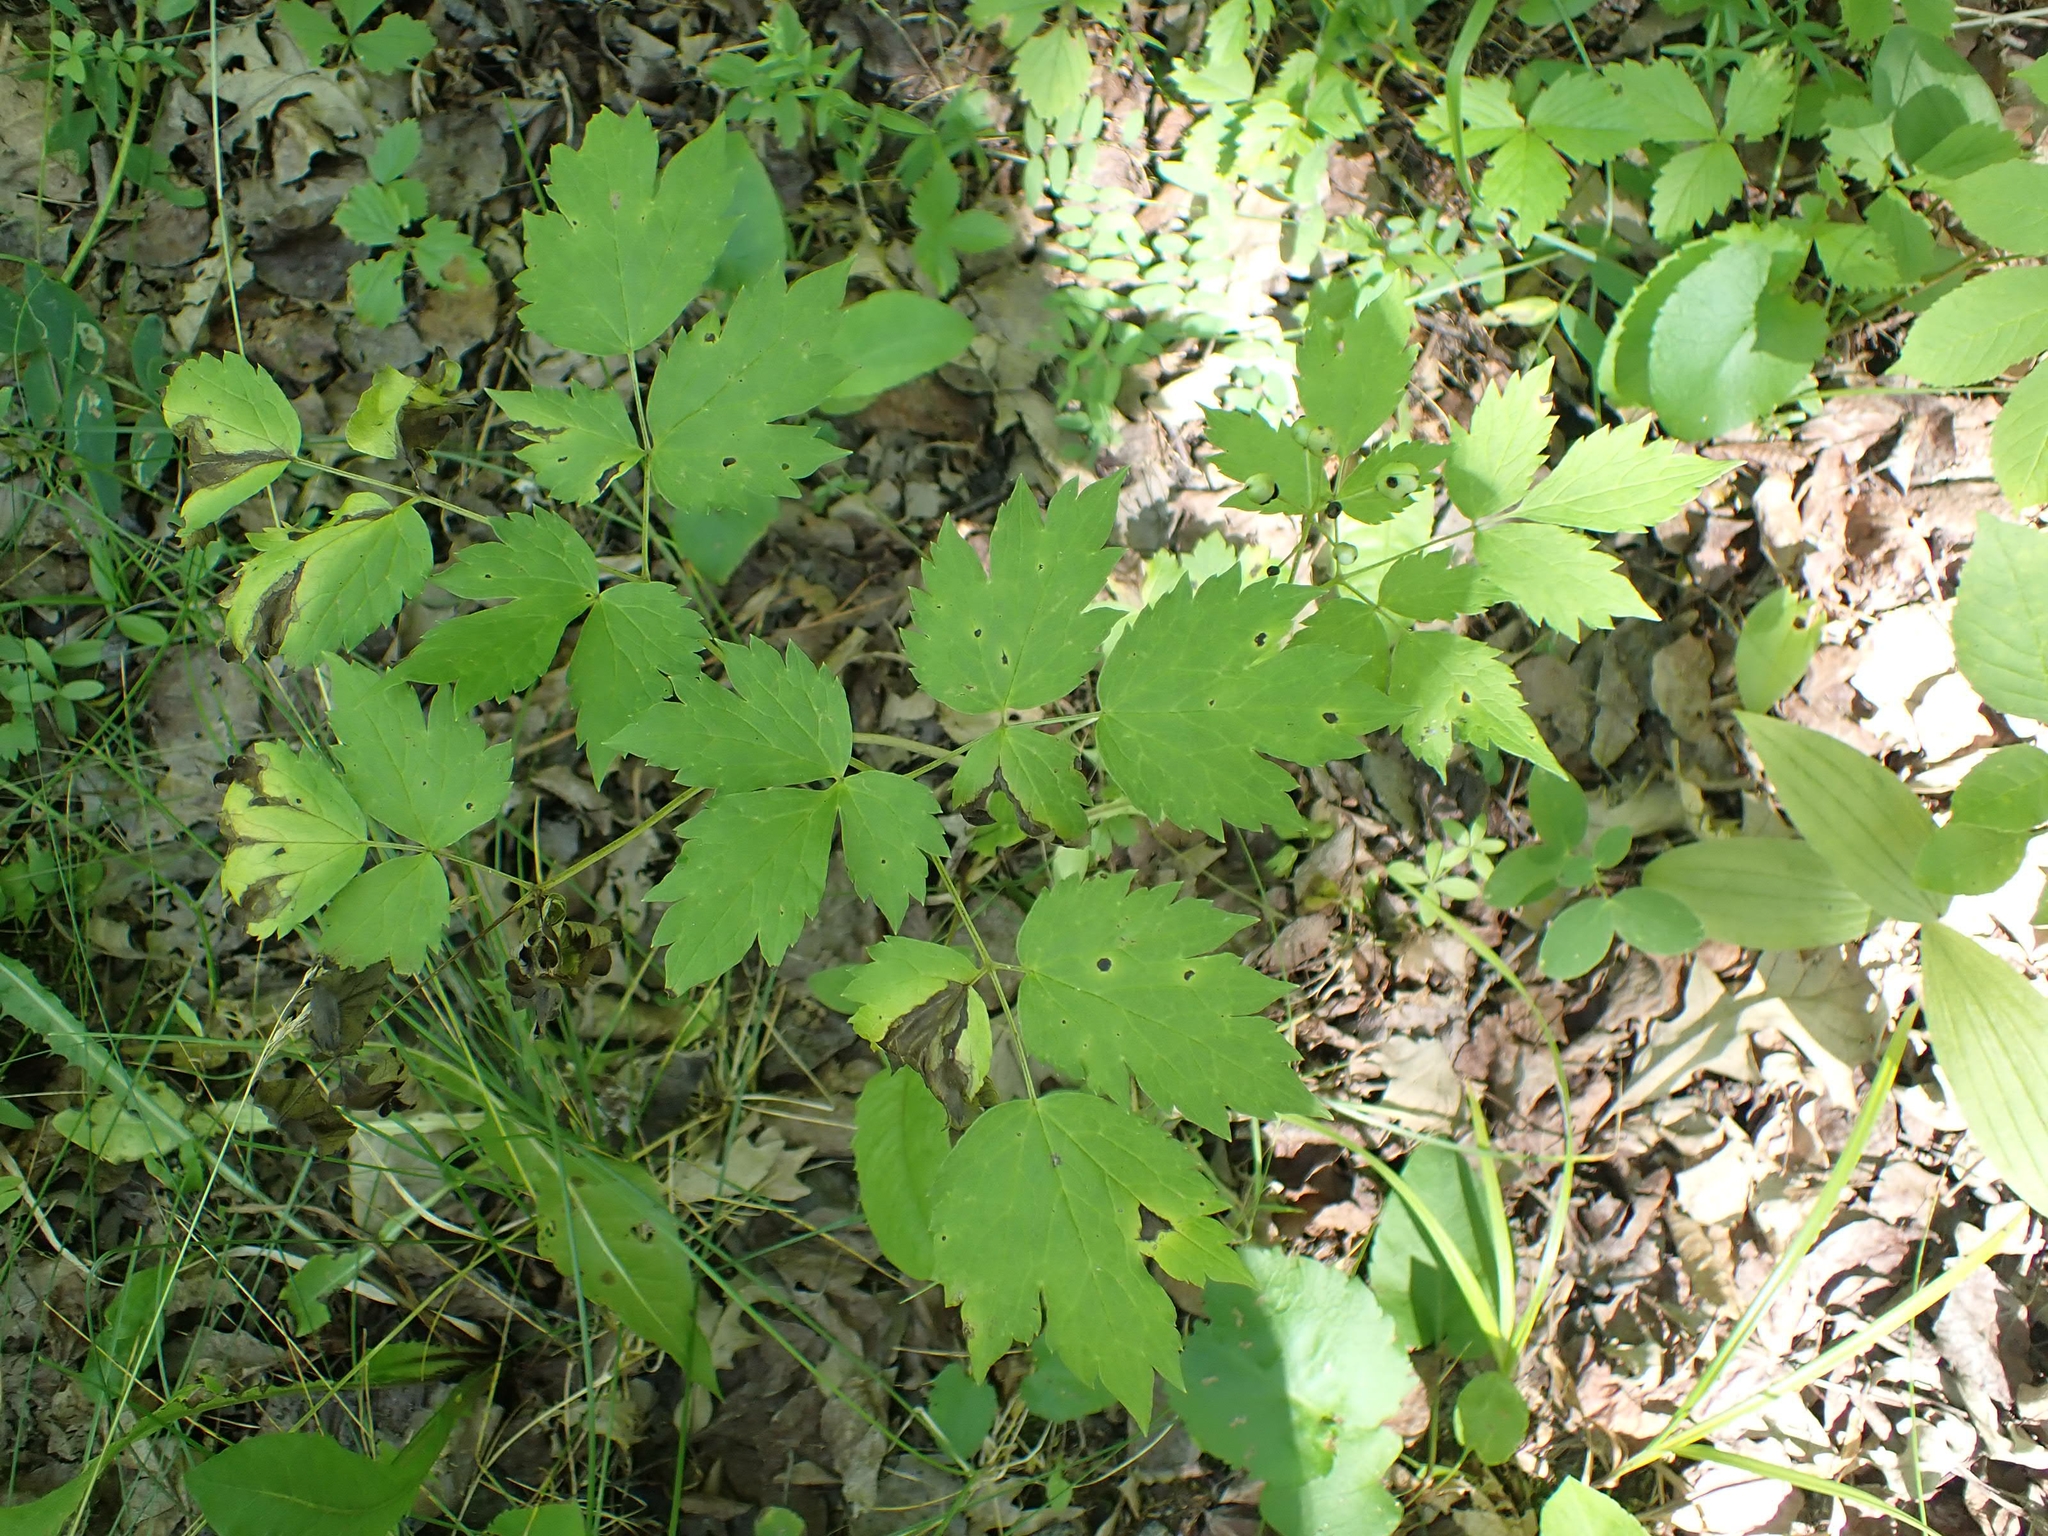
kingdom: Plantae
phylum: Tracheophyta
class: Magnoliopsida
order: Ranunculales
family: Ranunculaceae
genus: Actaea
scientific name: Actaea rubra
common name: Red baneberry
